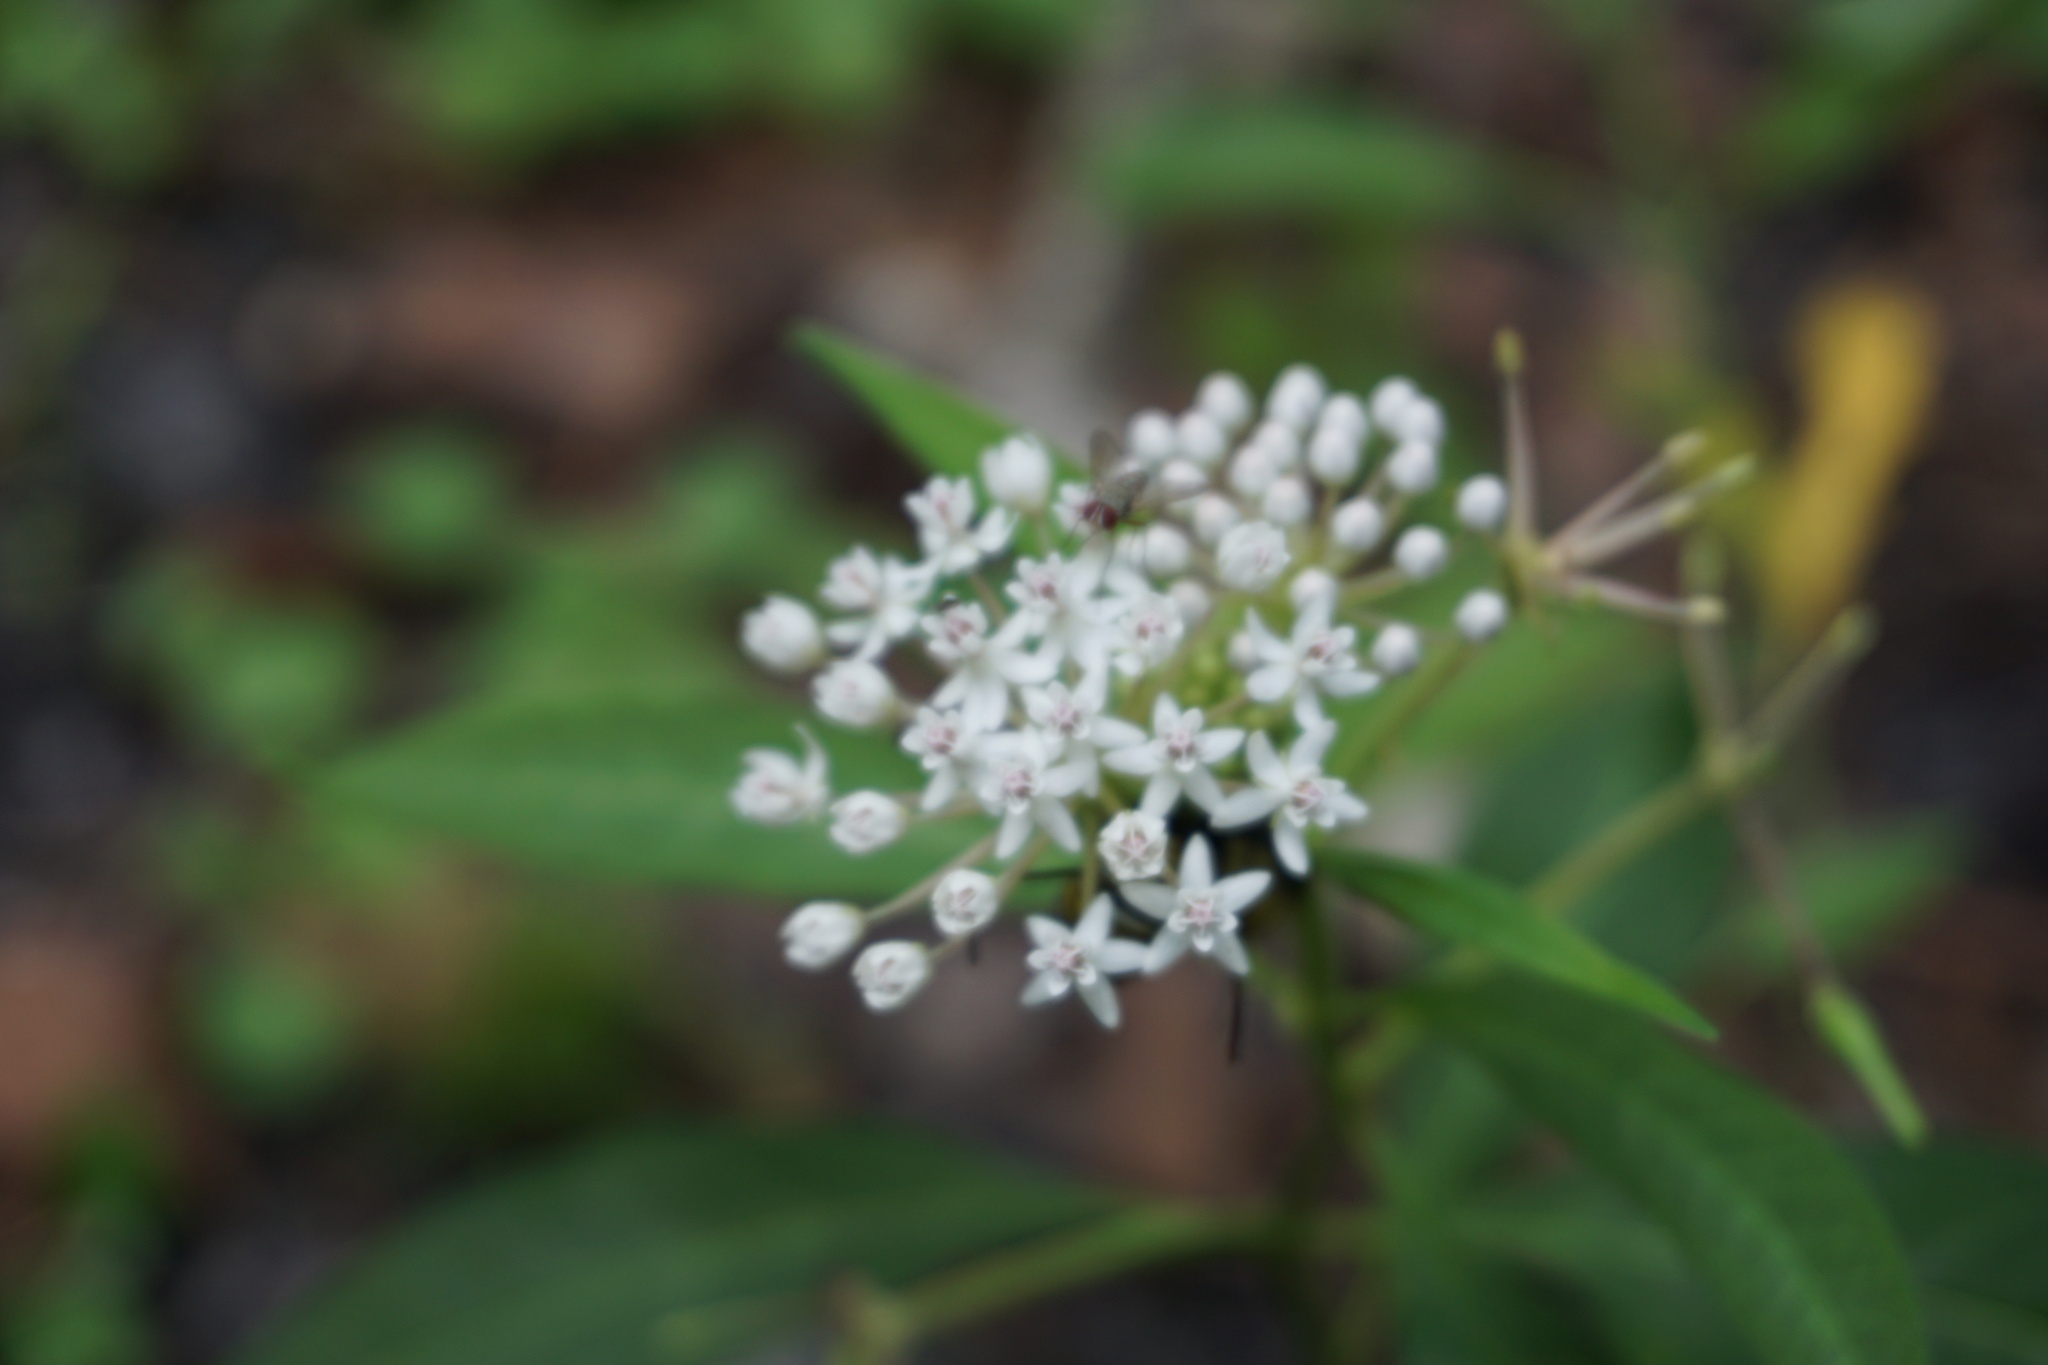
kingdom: Plantae
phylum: Tracheophyta
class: Magnoliopsida
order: Gentianales
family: Apocynaceae
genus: Asclepias
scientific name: Asclepias perennis
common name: Smooth-seed milkweed
